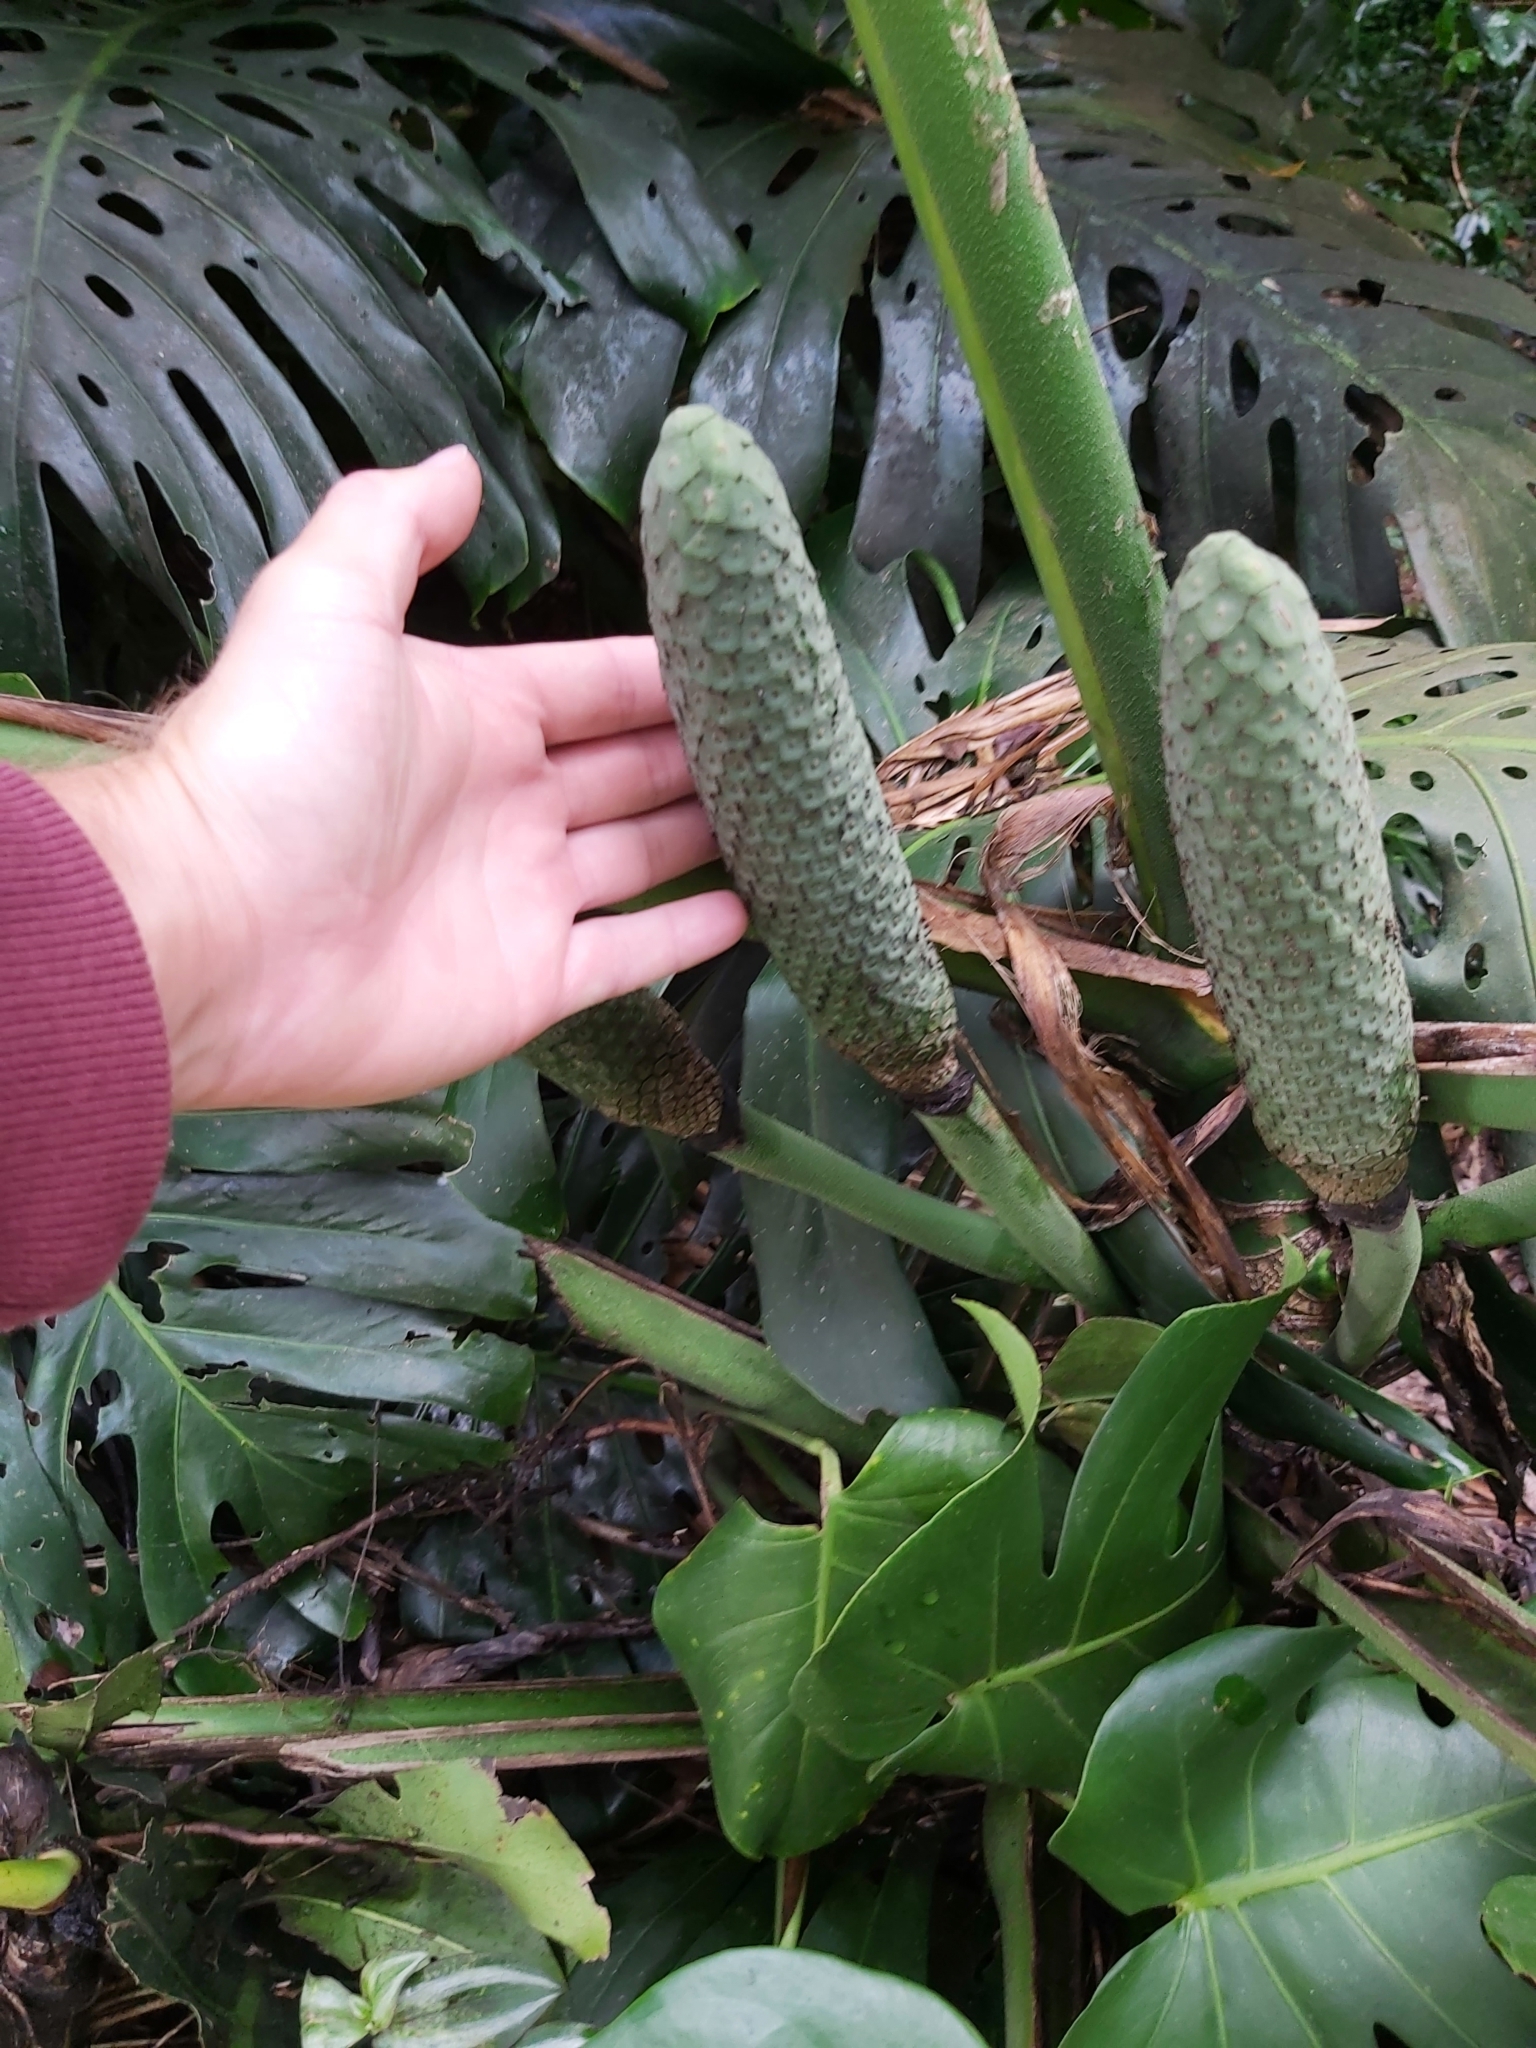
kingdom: Plantae
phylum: Tracheophyta
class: Liliopsida
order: Alismatales
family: Araceae
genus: Monstera
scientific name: Monstera deliciosa
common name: Cut-leaf-philodendron
